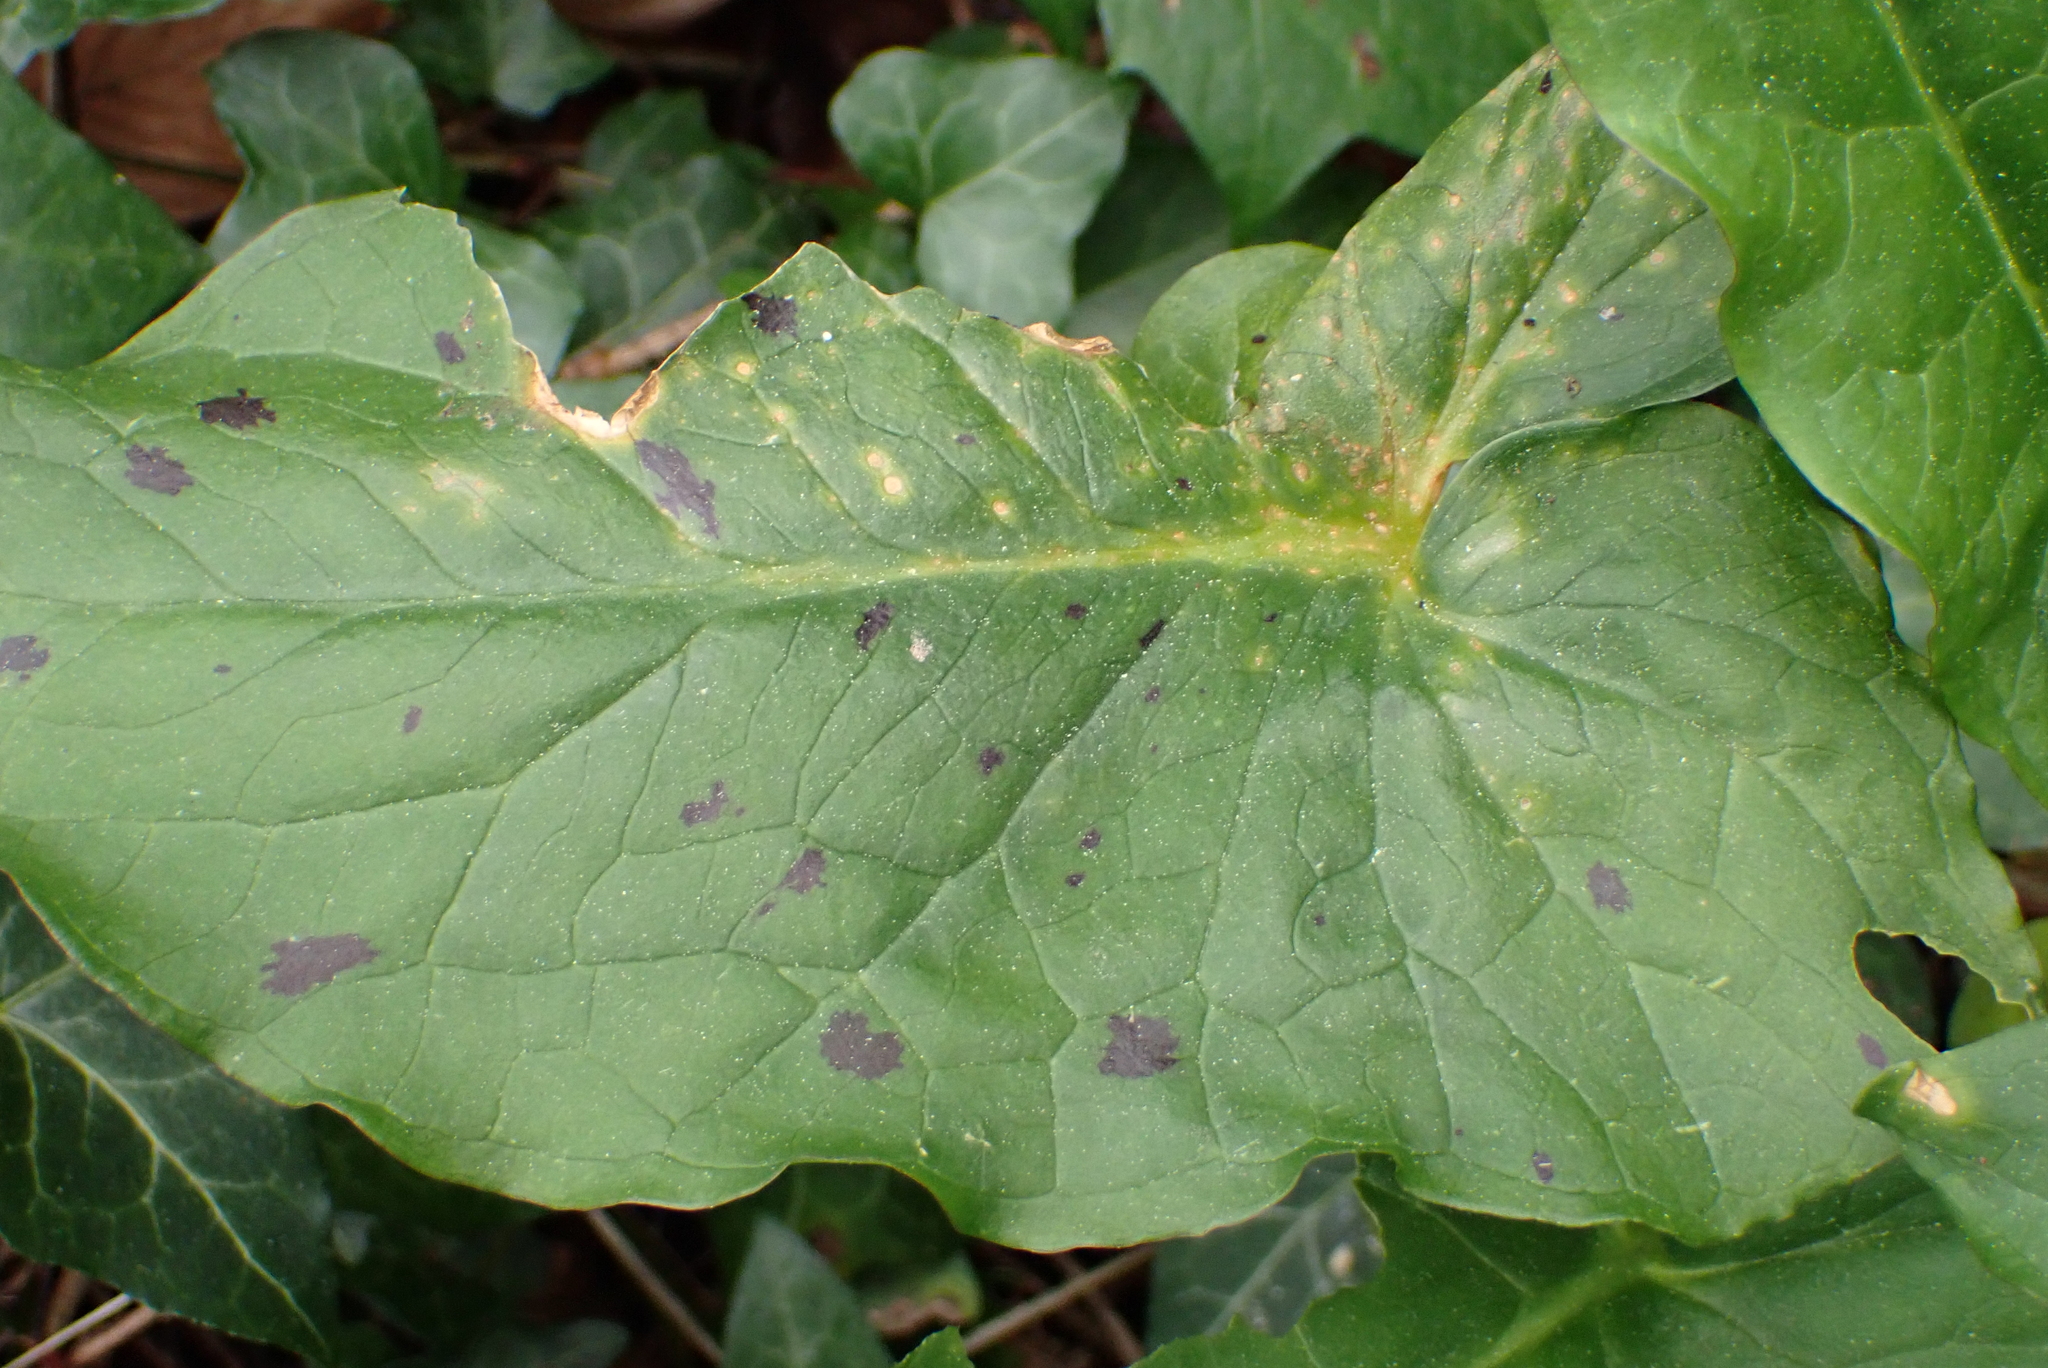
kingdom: Plantae
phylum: Tracheophyta
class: Liliopsida
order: Alismatales
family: Araceae
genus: Arum
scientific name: Arum maculatum
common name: Lords-and-ladies
